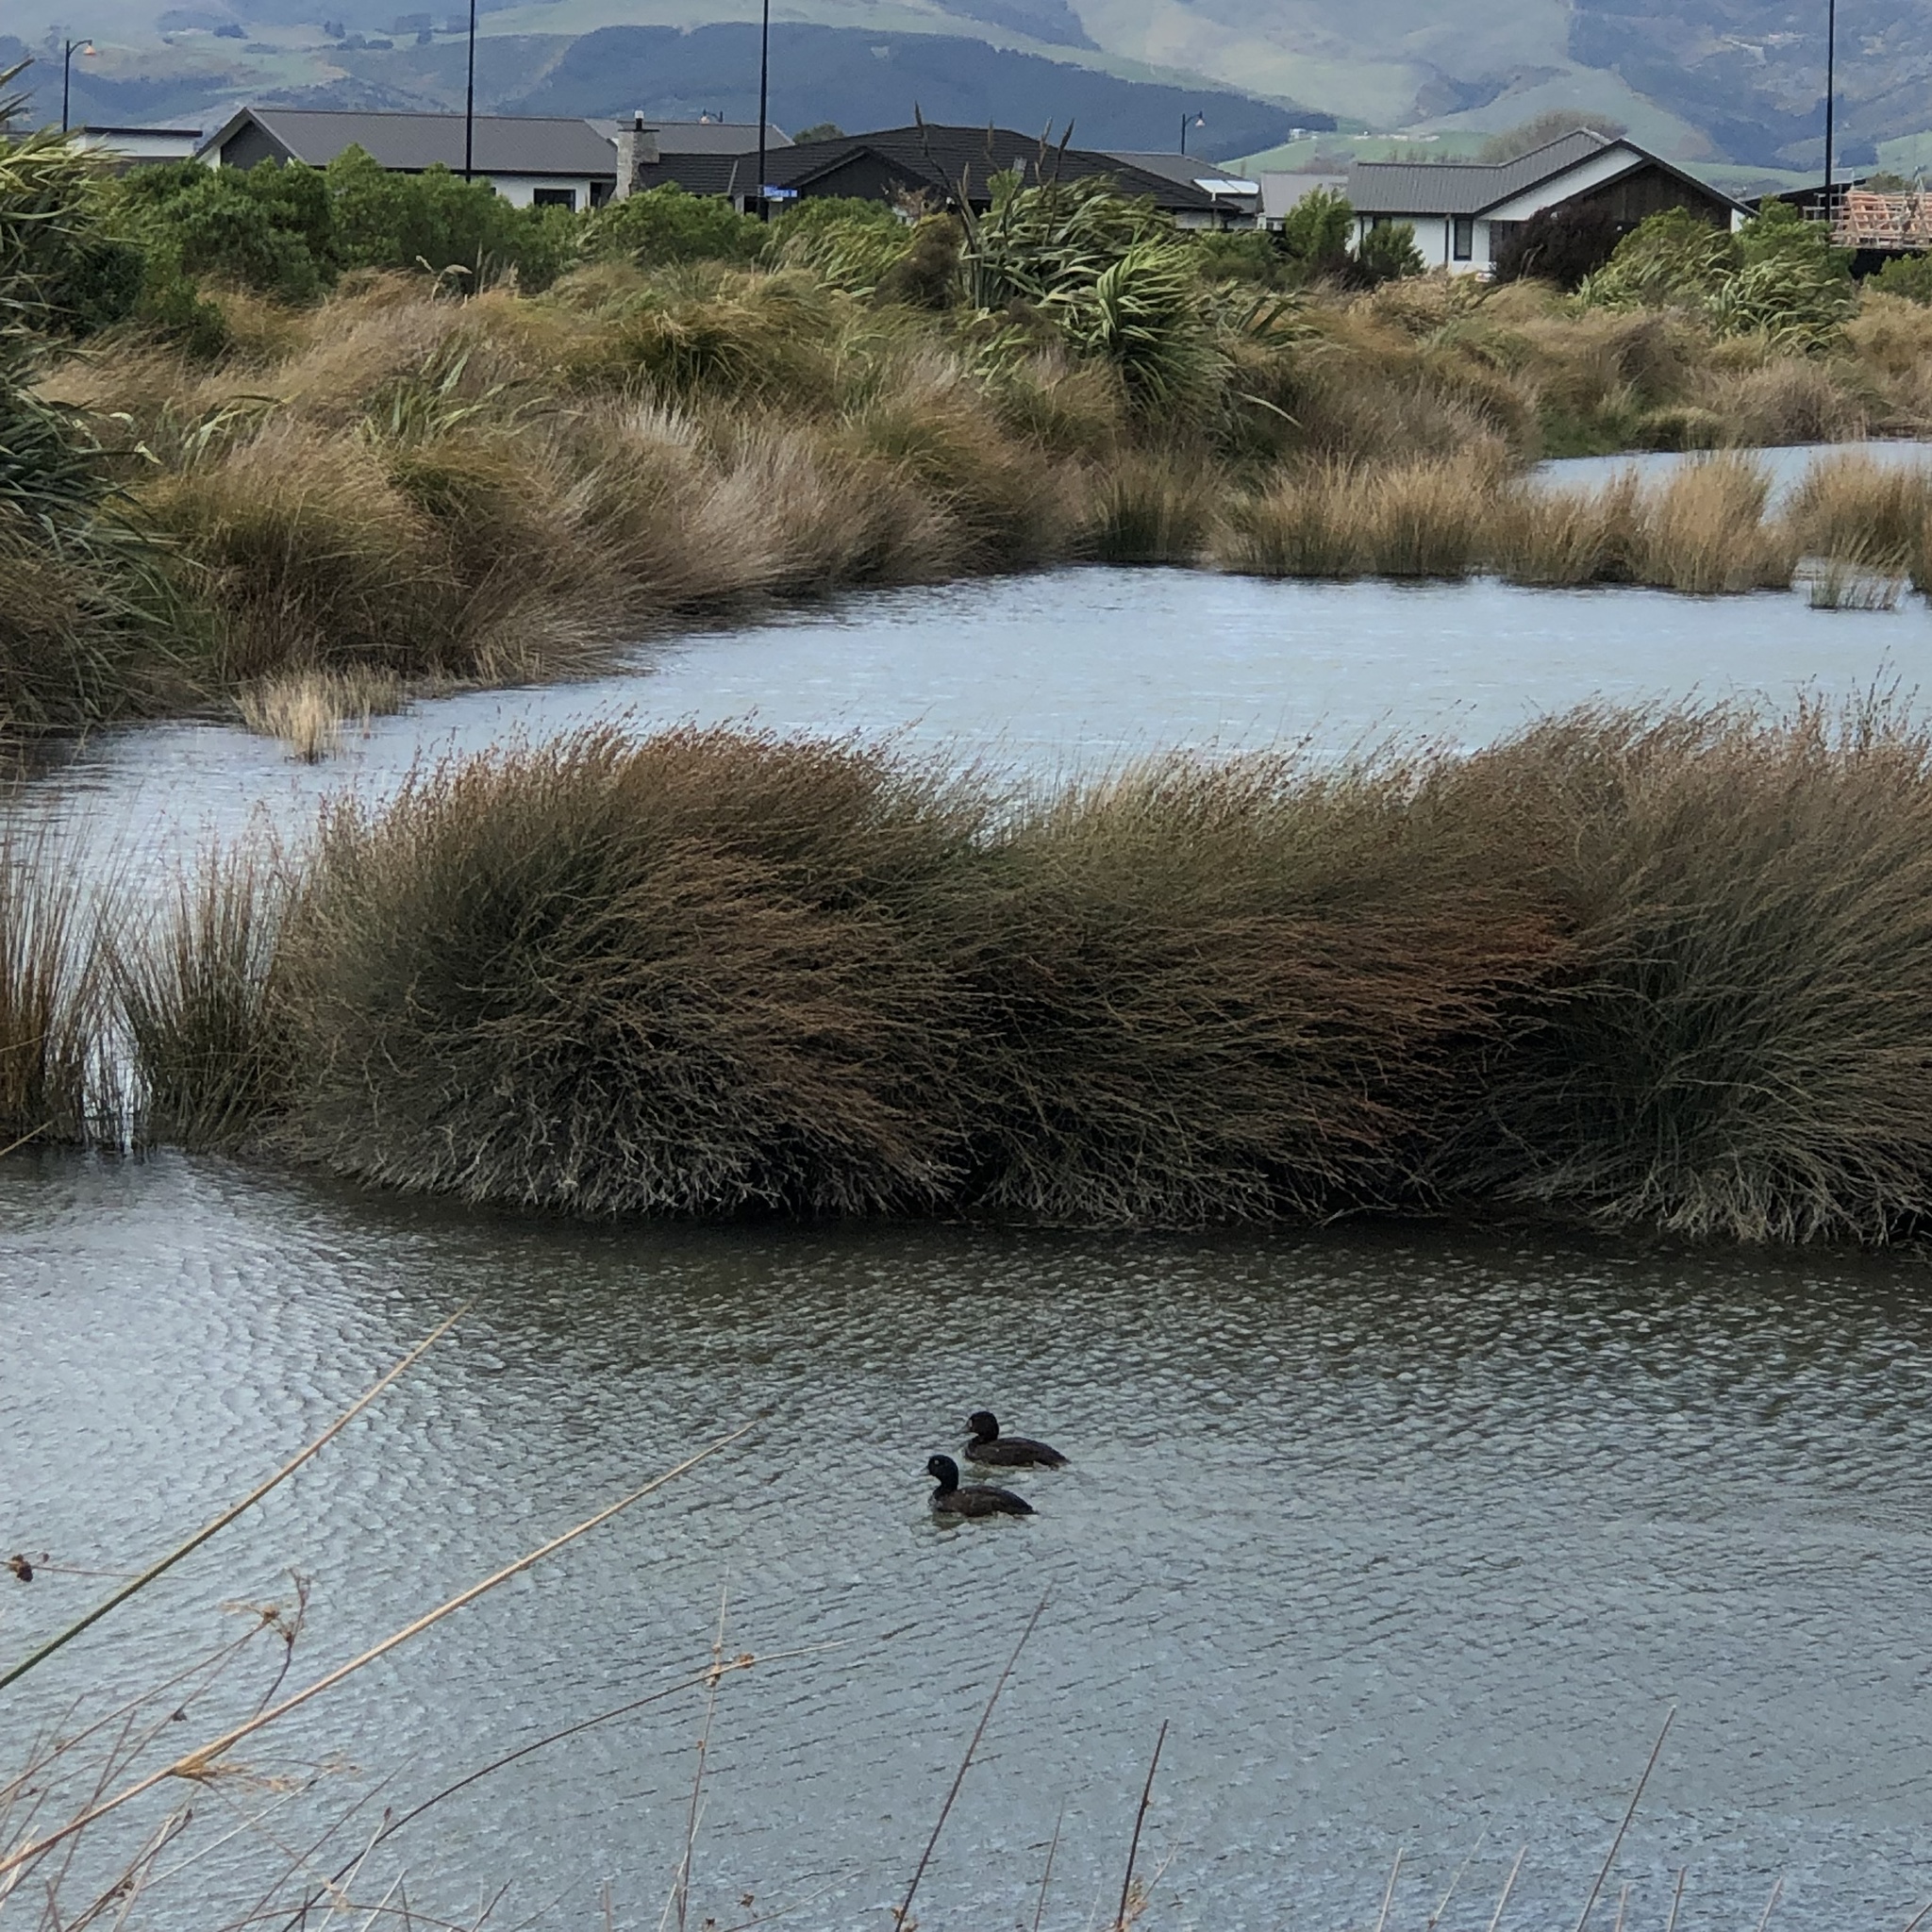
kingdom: Animalia
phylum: Chordata
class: Aves
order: Anseriformes
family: Anatidae
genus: Aythya
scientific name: Aythya novaeseelandiae
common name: New zealand scaup
